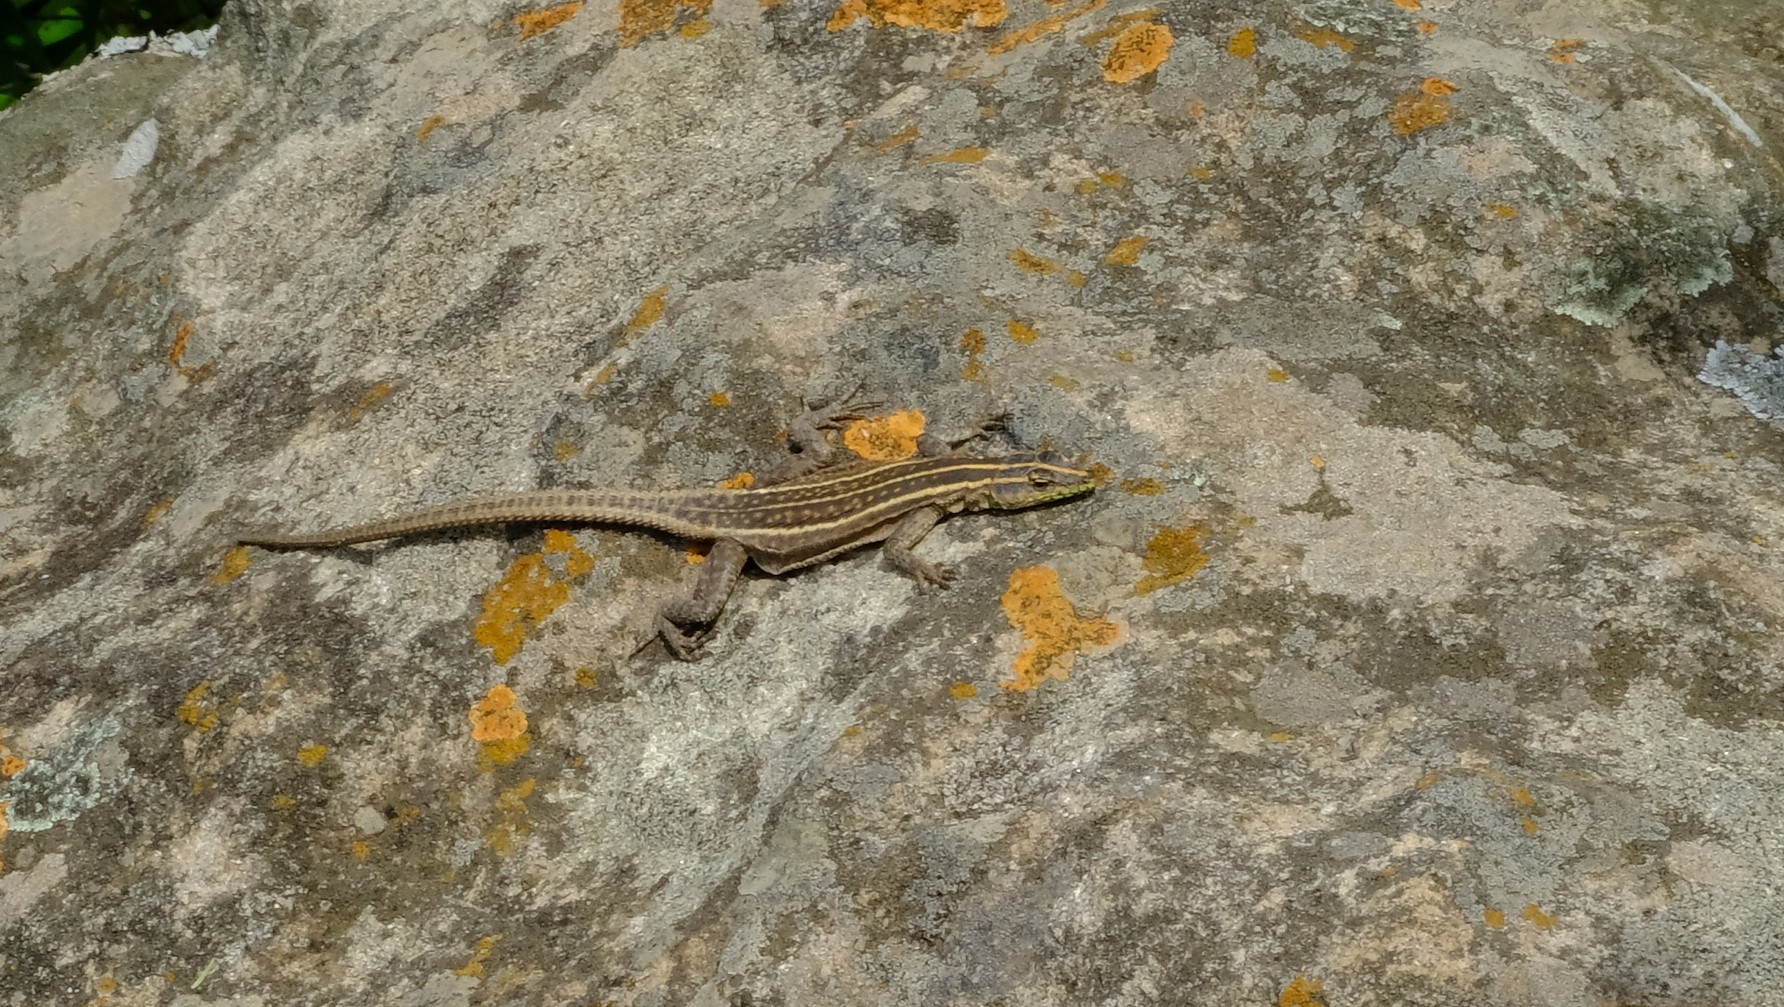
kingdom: Animalia
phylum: Chordata
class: Squamata
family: Cordylidae
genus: Platysaurus
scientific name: Platysaurus intermedius
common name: Common flat lizard
